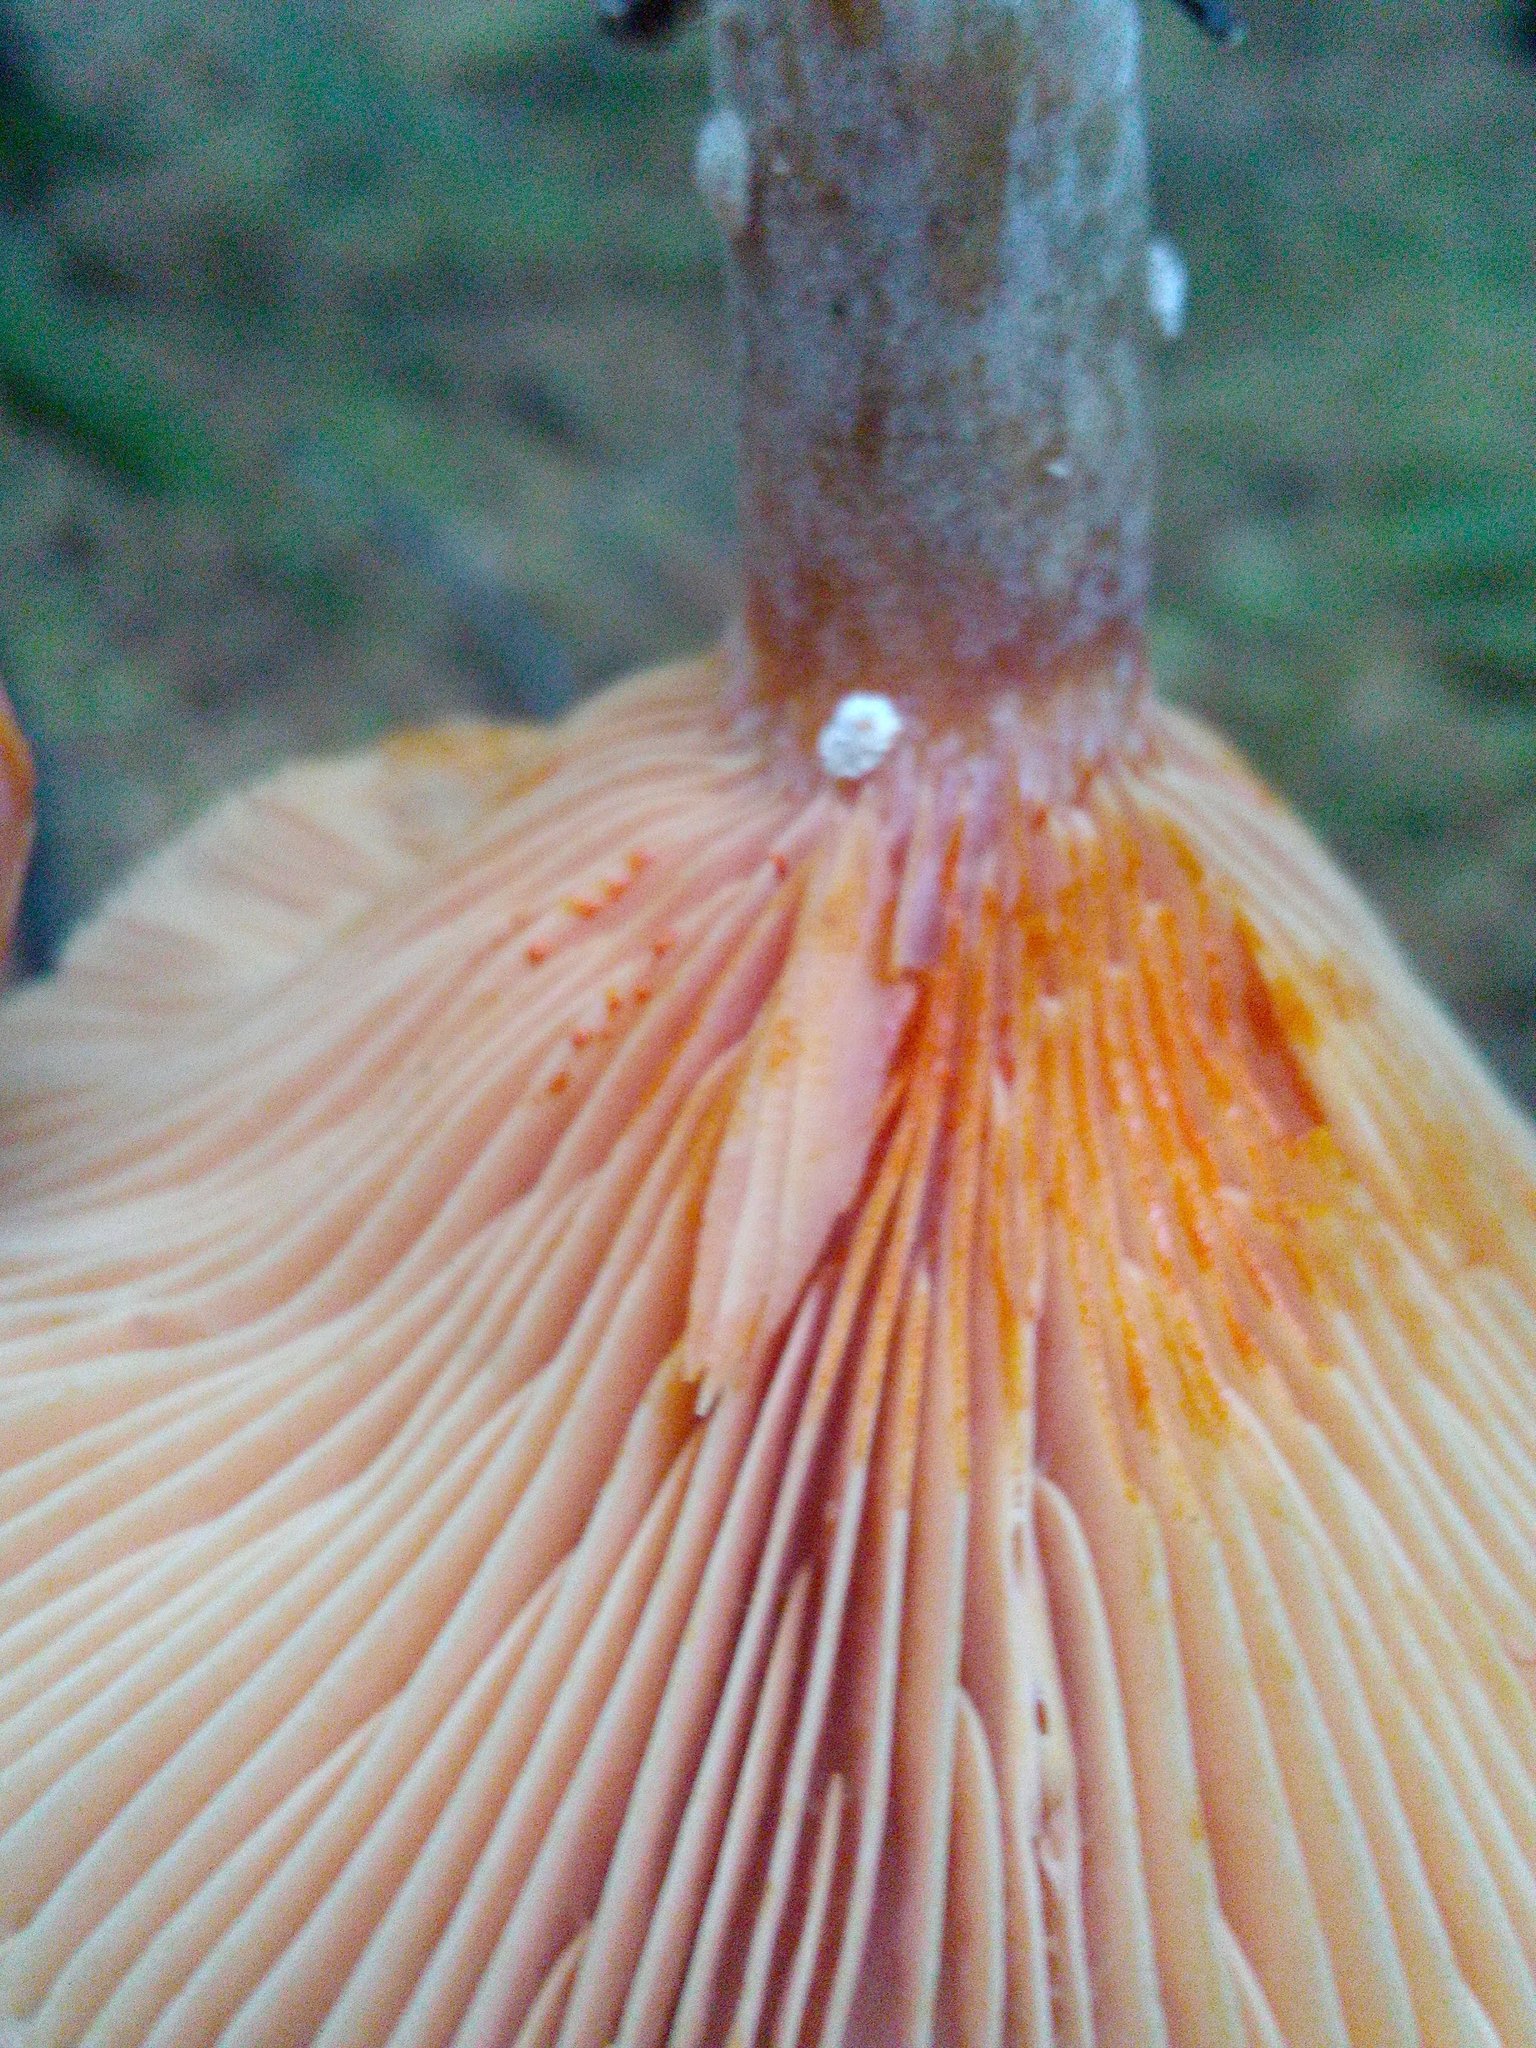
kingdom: Fungi
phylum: Basidiomycota
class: Agaricomycetes
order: Russulales
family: Russulaceae
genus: Lactarius
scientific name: Lactarius deterrimus
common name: False saffron milkcap
